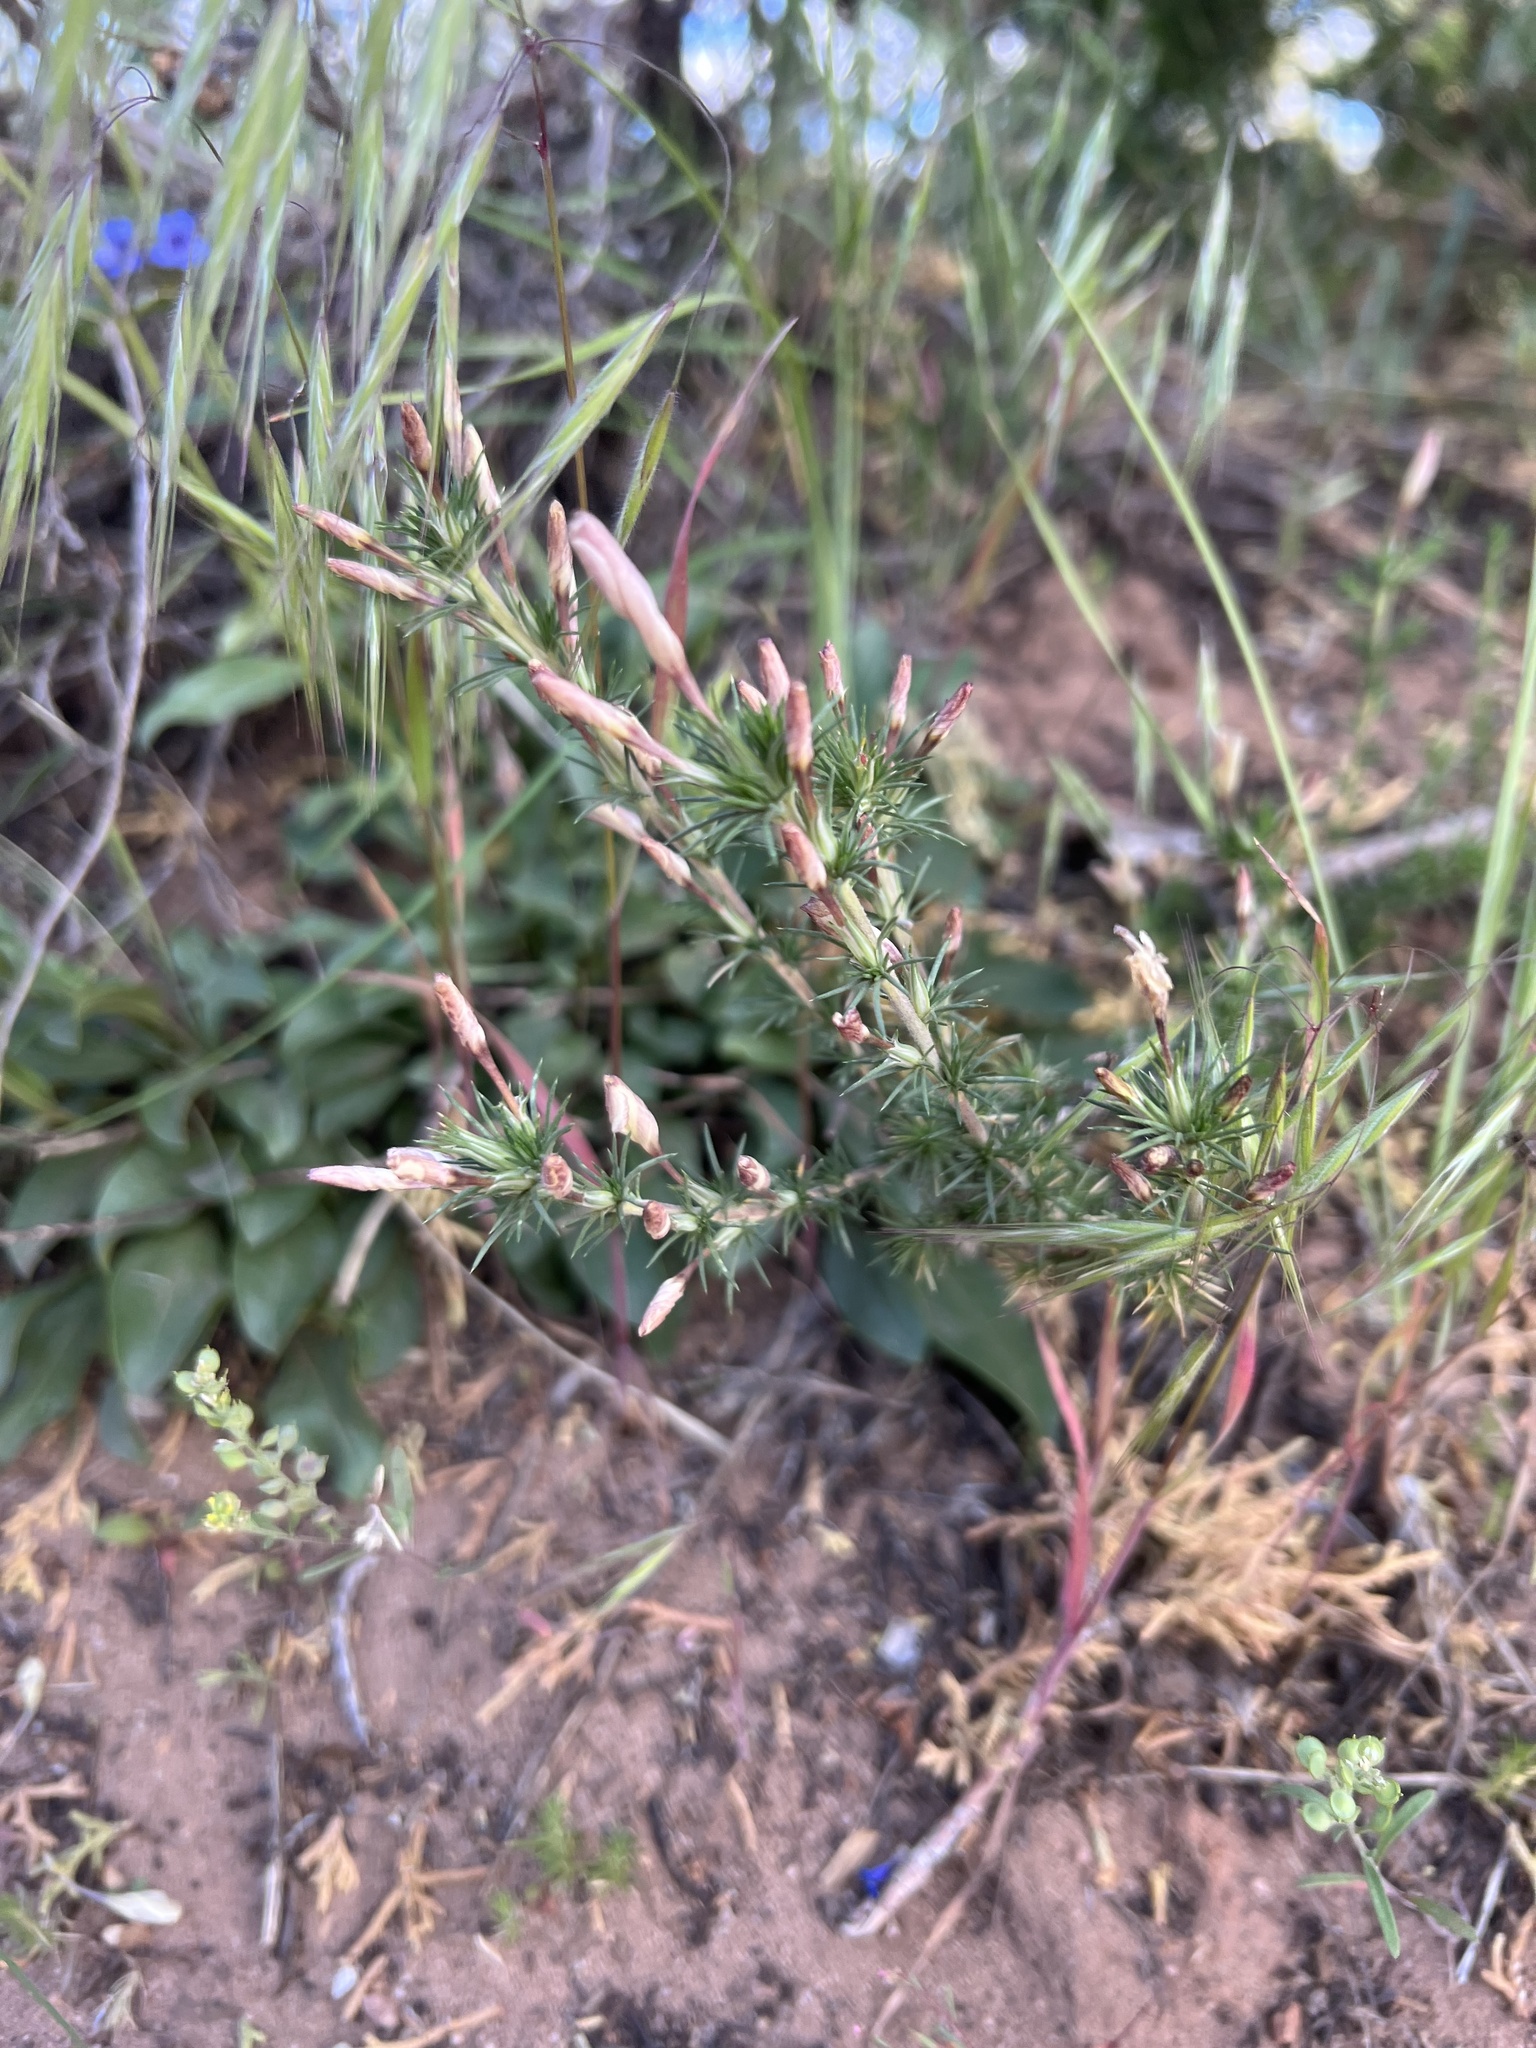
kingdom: Plantae
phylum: Tracheophyta
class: Magnoliopsida
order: Ericales
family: Polemoniaceae
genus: Linanthus
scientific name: Linanthus pungens
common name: Granite prickly phlox
